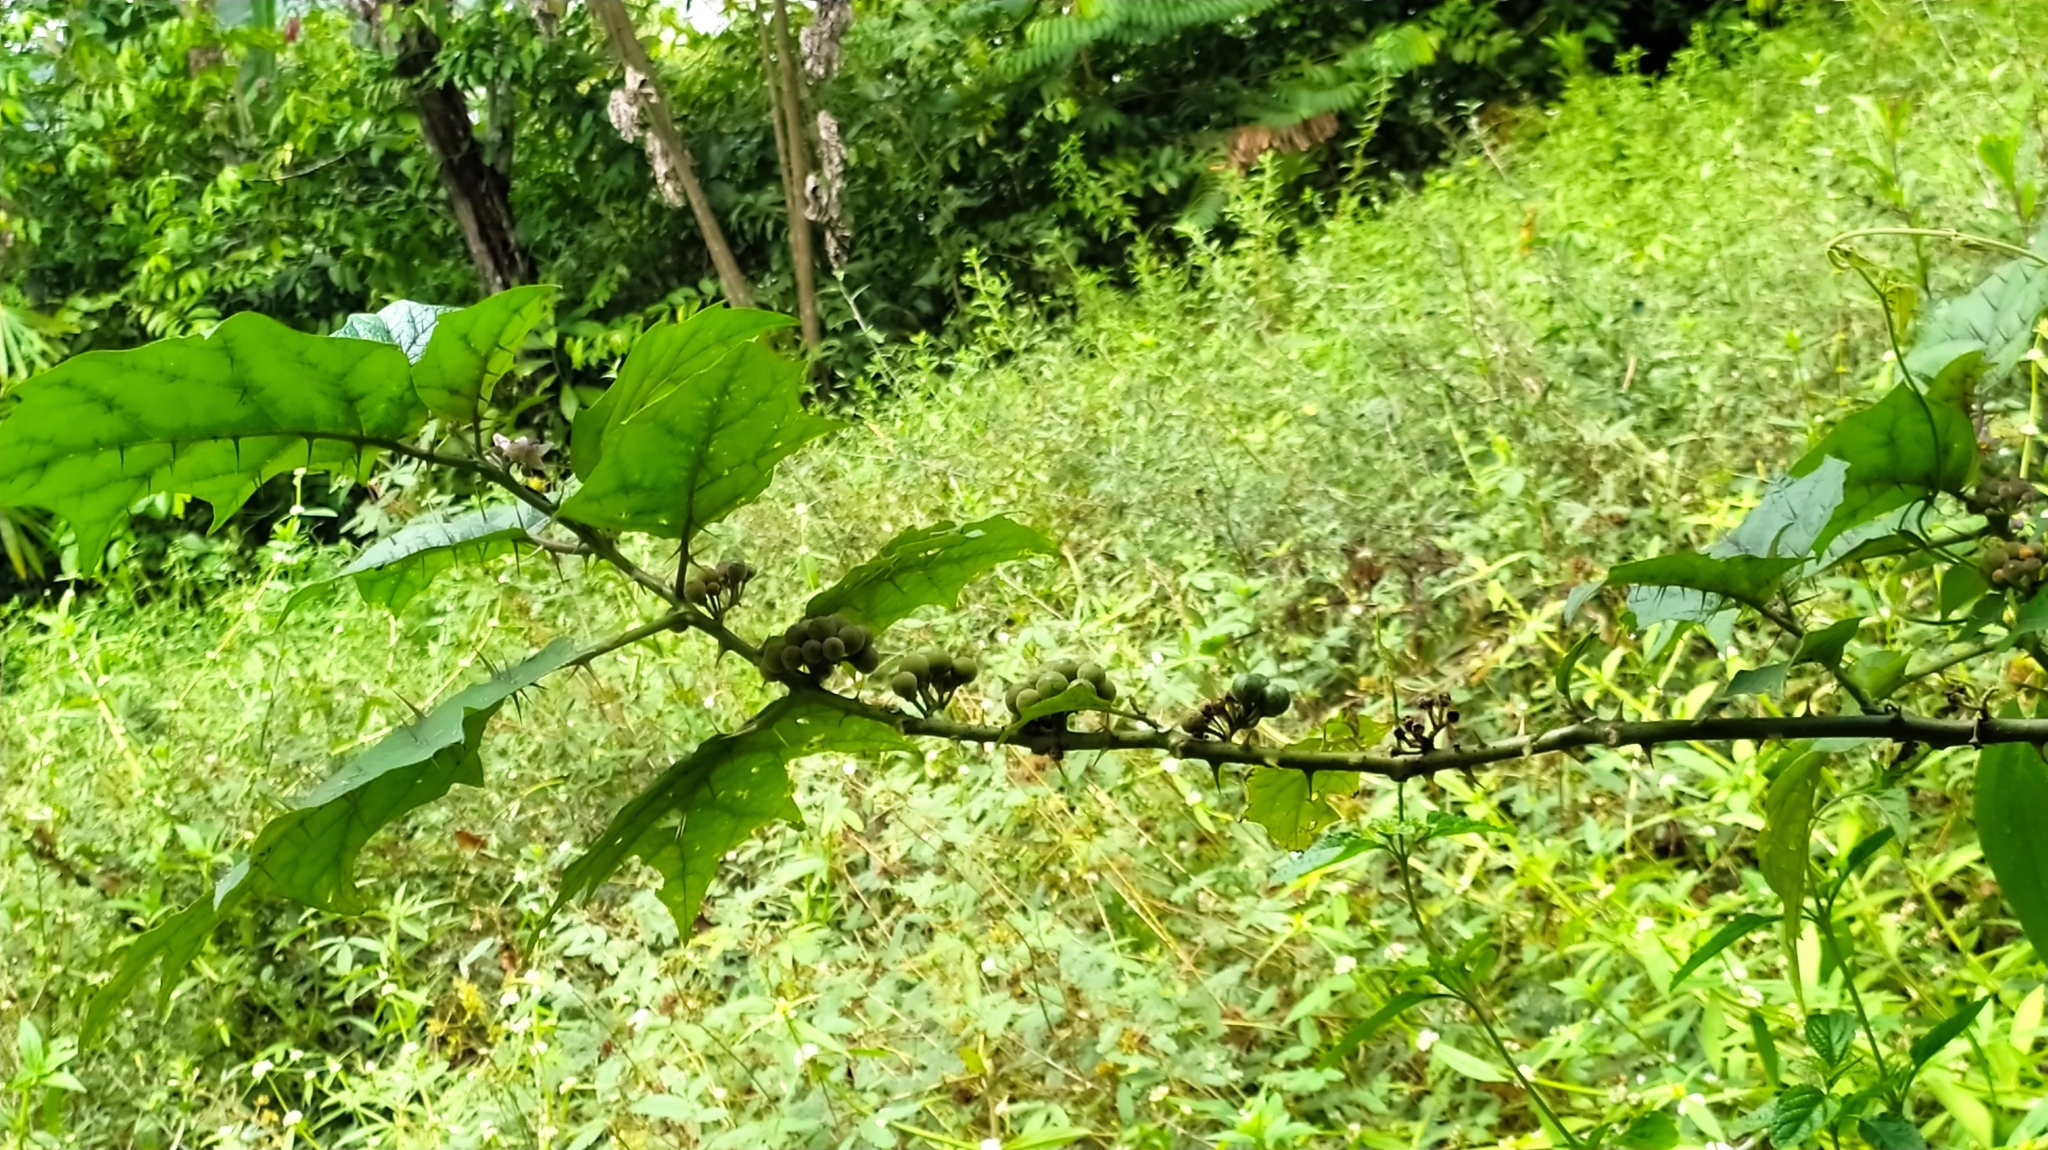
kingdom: Plantae
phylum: Tracheophyta
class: Magnoliopsida
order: Solanales
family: Solanaceae
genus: Solanum
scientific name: Solanum
